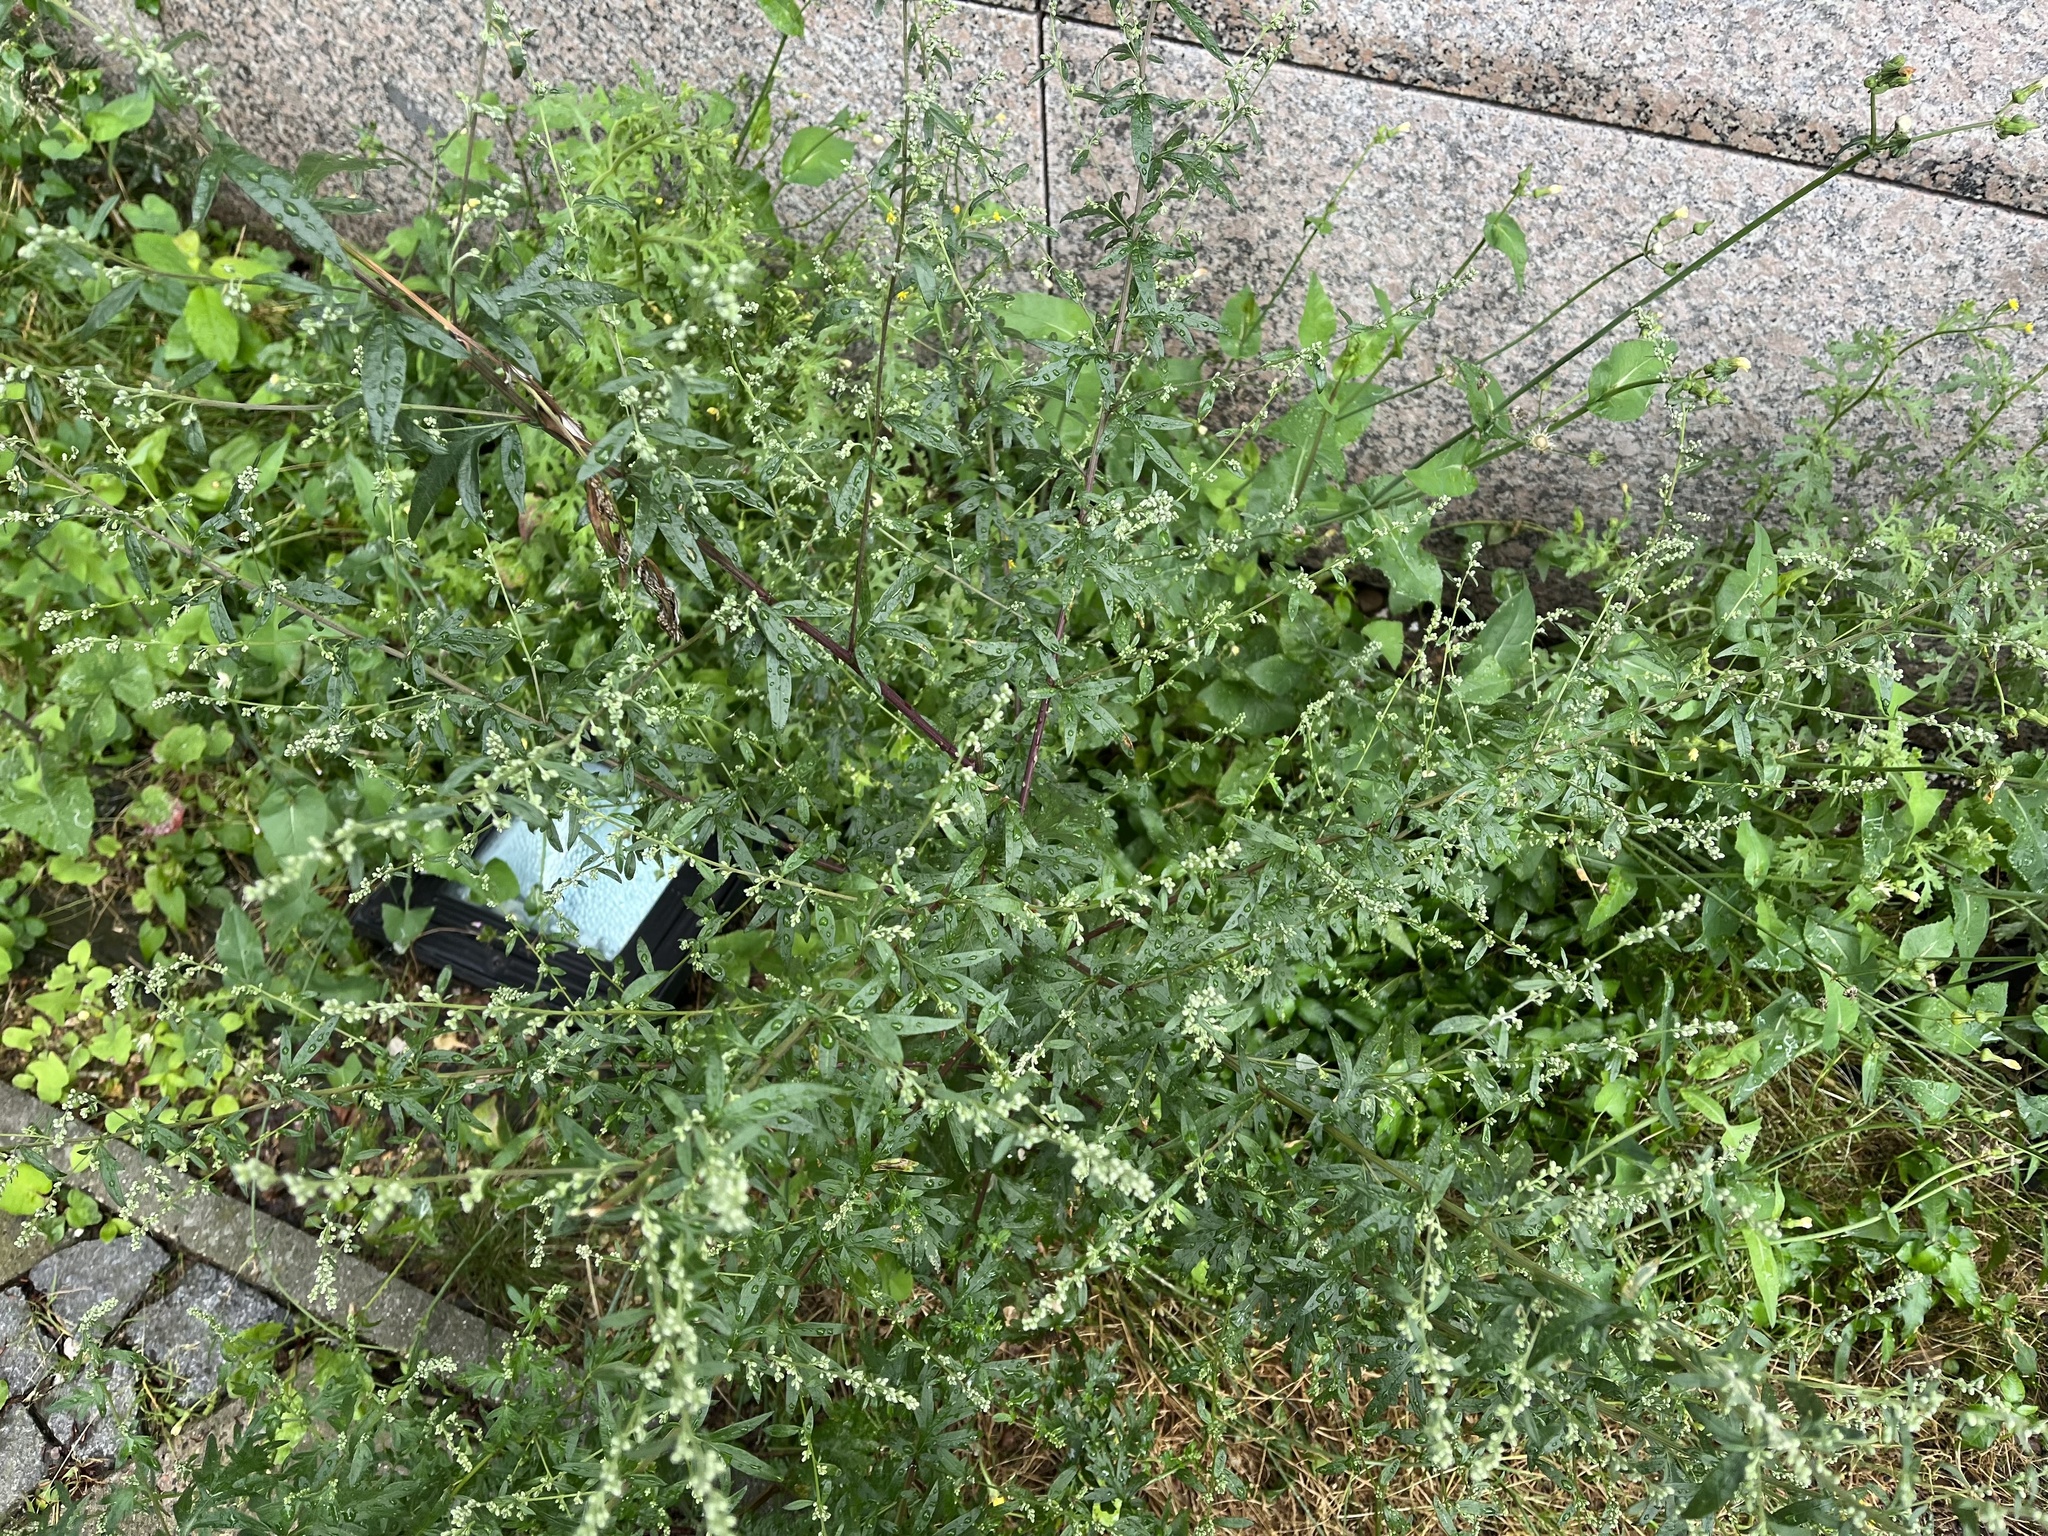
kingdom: Plantae
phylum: Tracheophyta
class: Magnoliopsida
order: Asterales
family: Asteraceae
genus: Artemisia
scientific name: Artemisia vulgaris
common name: Mugwort
